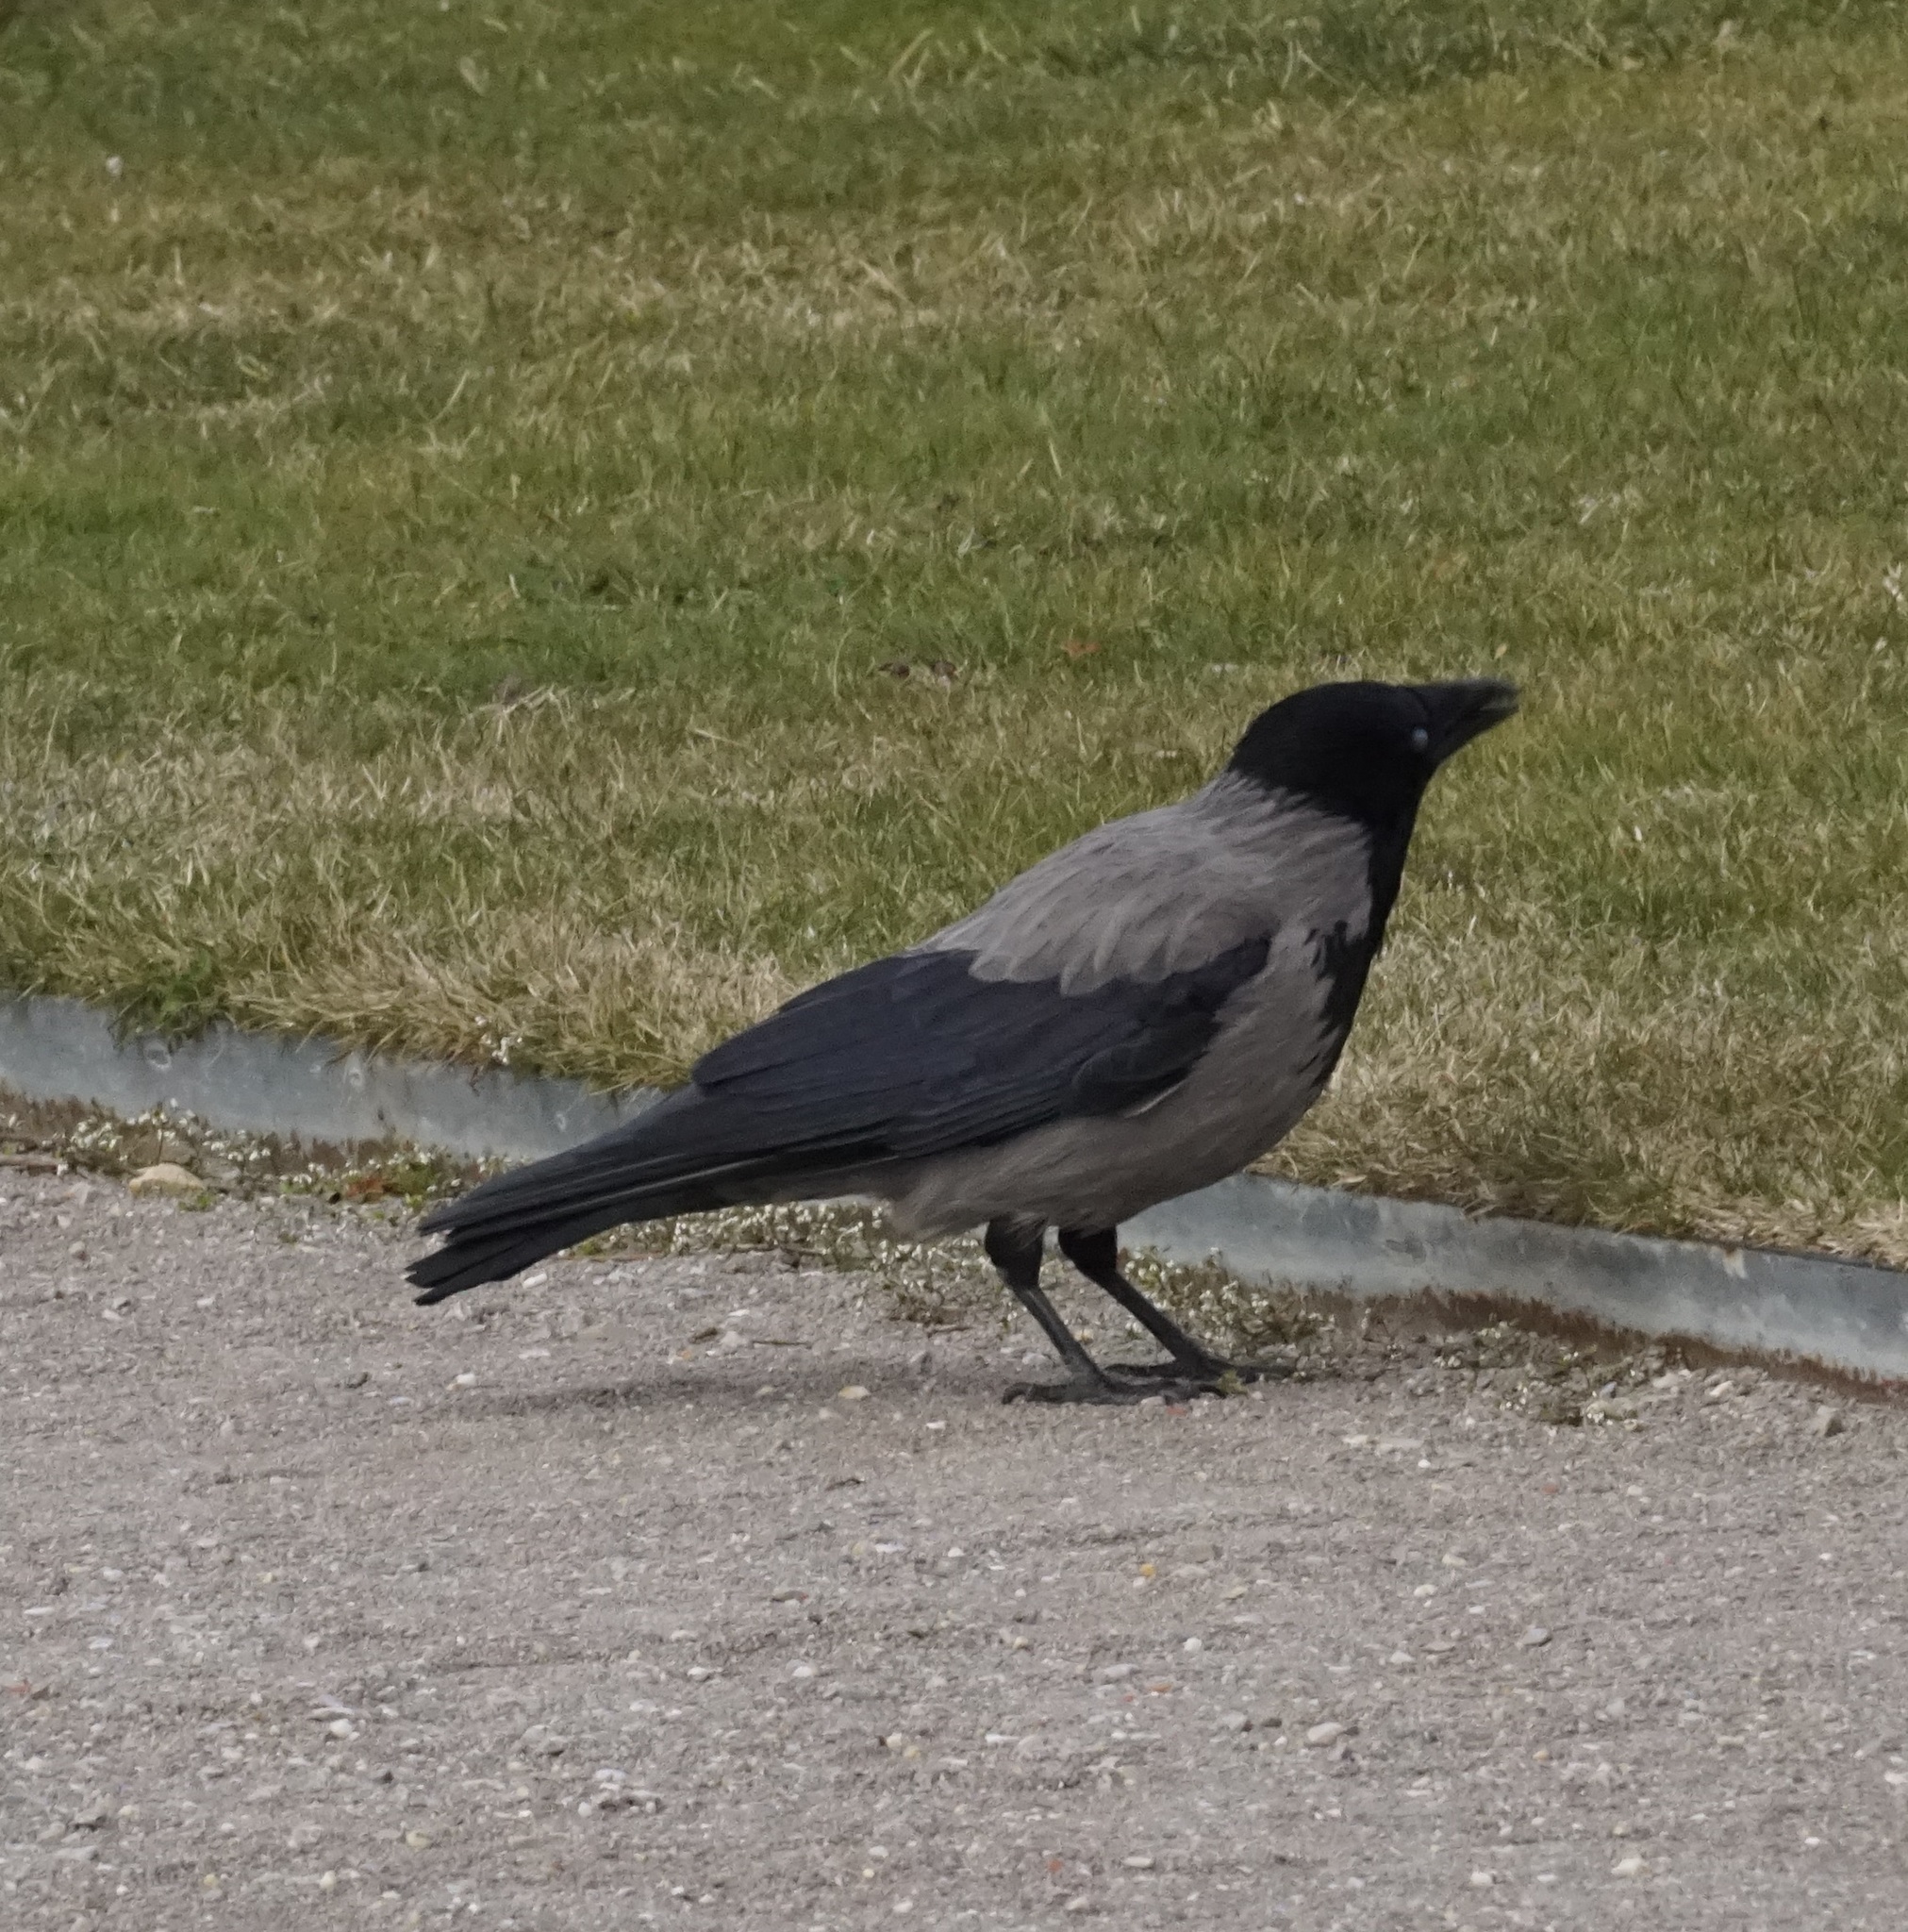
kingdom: Animalia
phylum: Chordata
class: Aves
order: Passeriformes
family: Corvidae
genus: Corvus
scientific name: Corvus cornix
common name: Hooded crow
